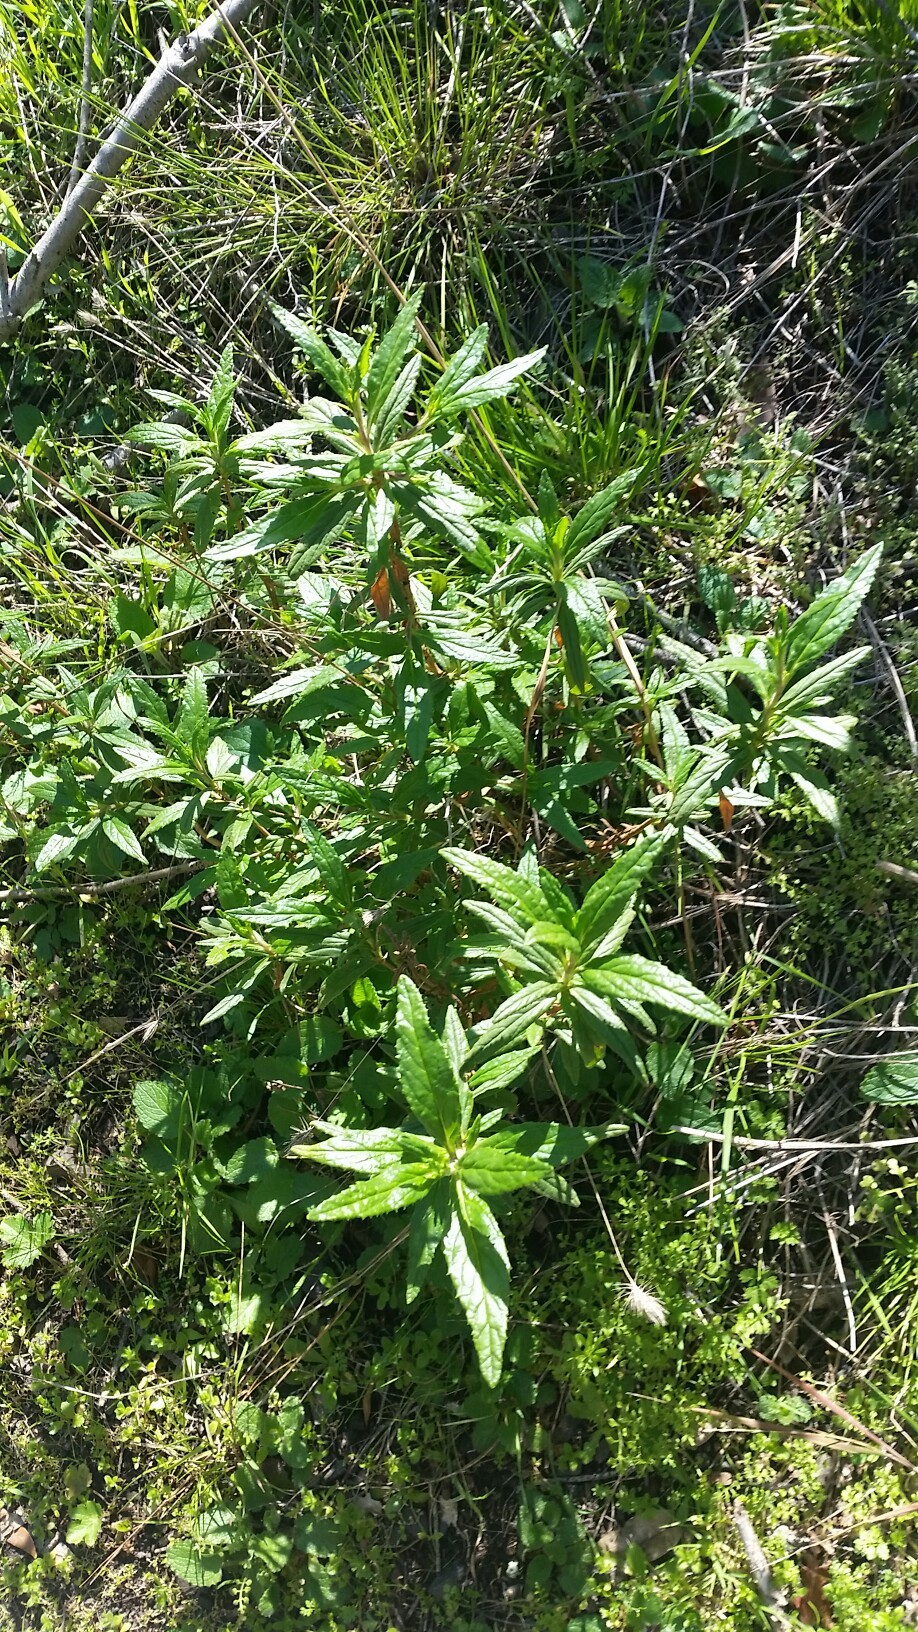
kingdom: Plantae
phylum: Tracheophyta
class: Magnoliopsida
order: Lamiales
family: Phrymaceae
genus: Diplacus
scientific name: Diplacus aurantiacus
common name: Bush monkey-flower
